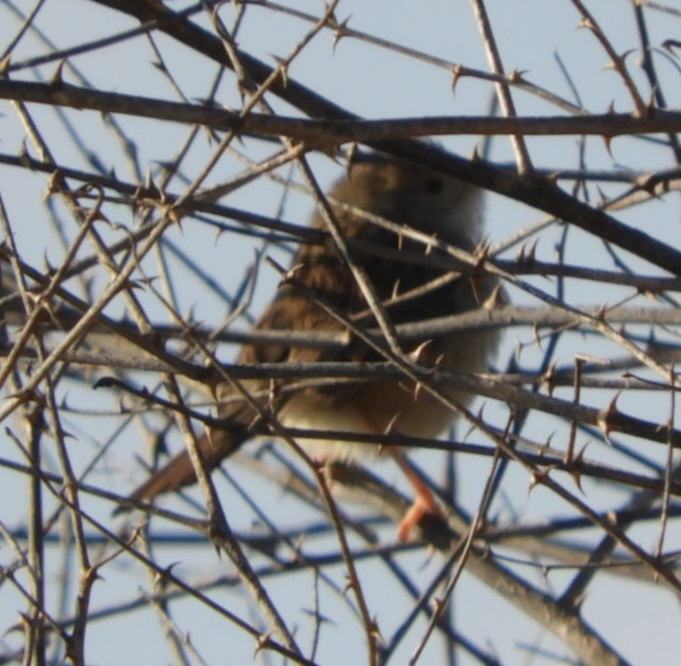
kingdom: Animalia
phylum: Chordata
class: Aves
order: Passeriformes
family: Cisticolidae
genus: Prinia
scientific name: Prinia gracilis
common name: Graceful prinia
